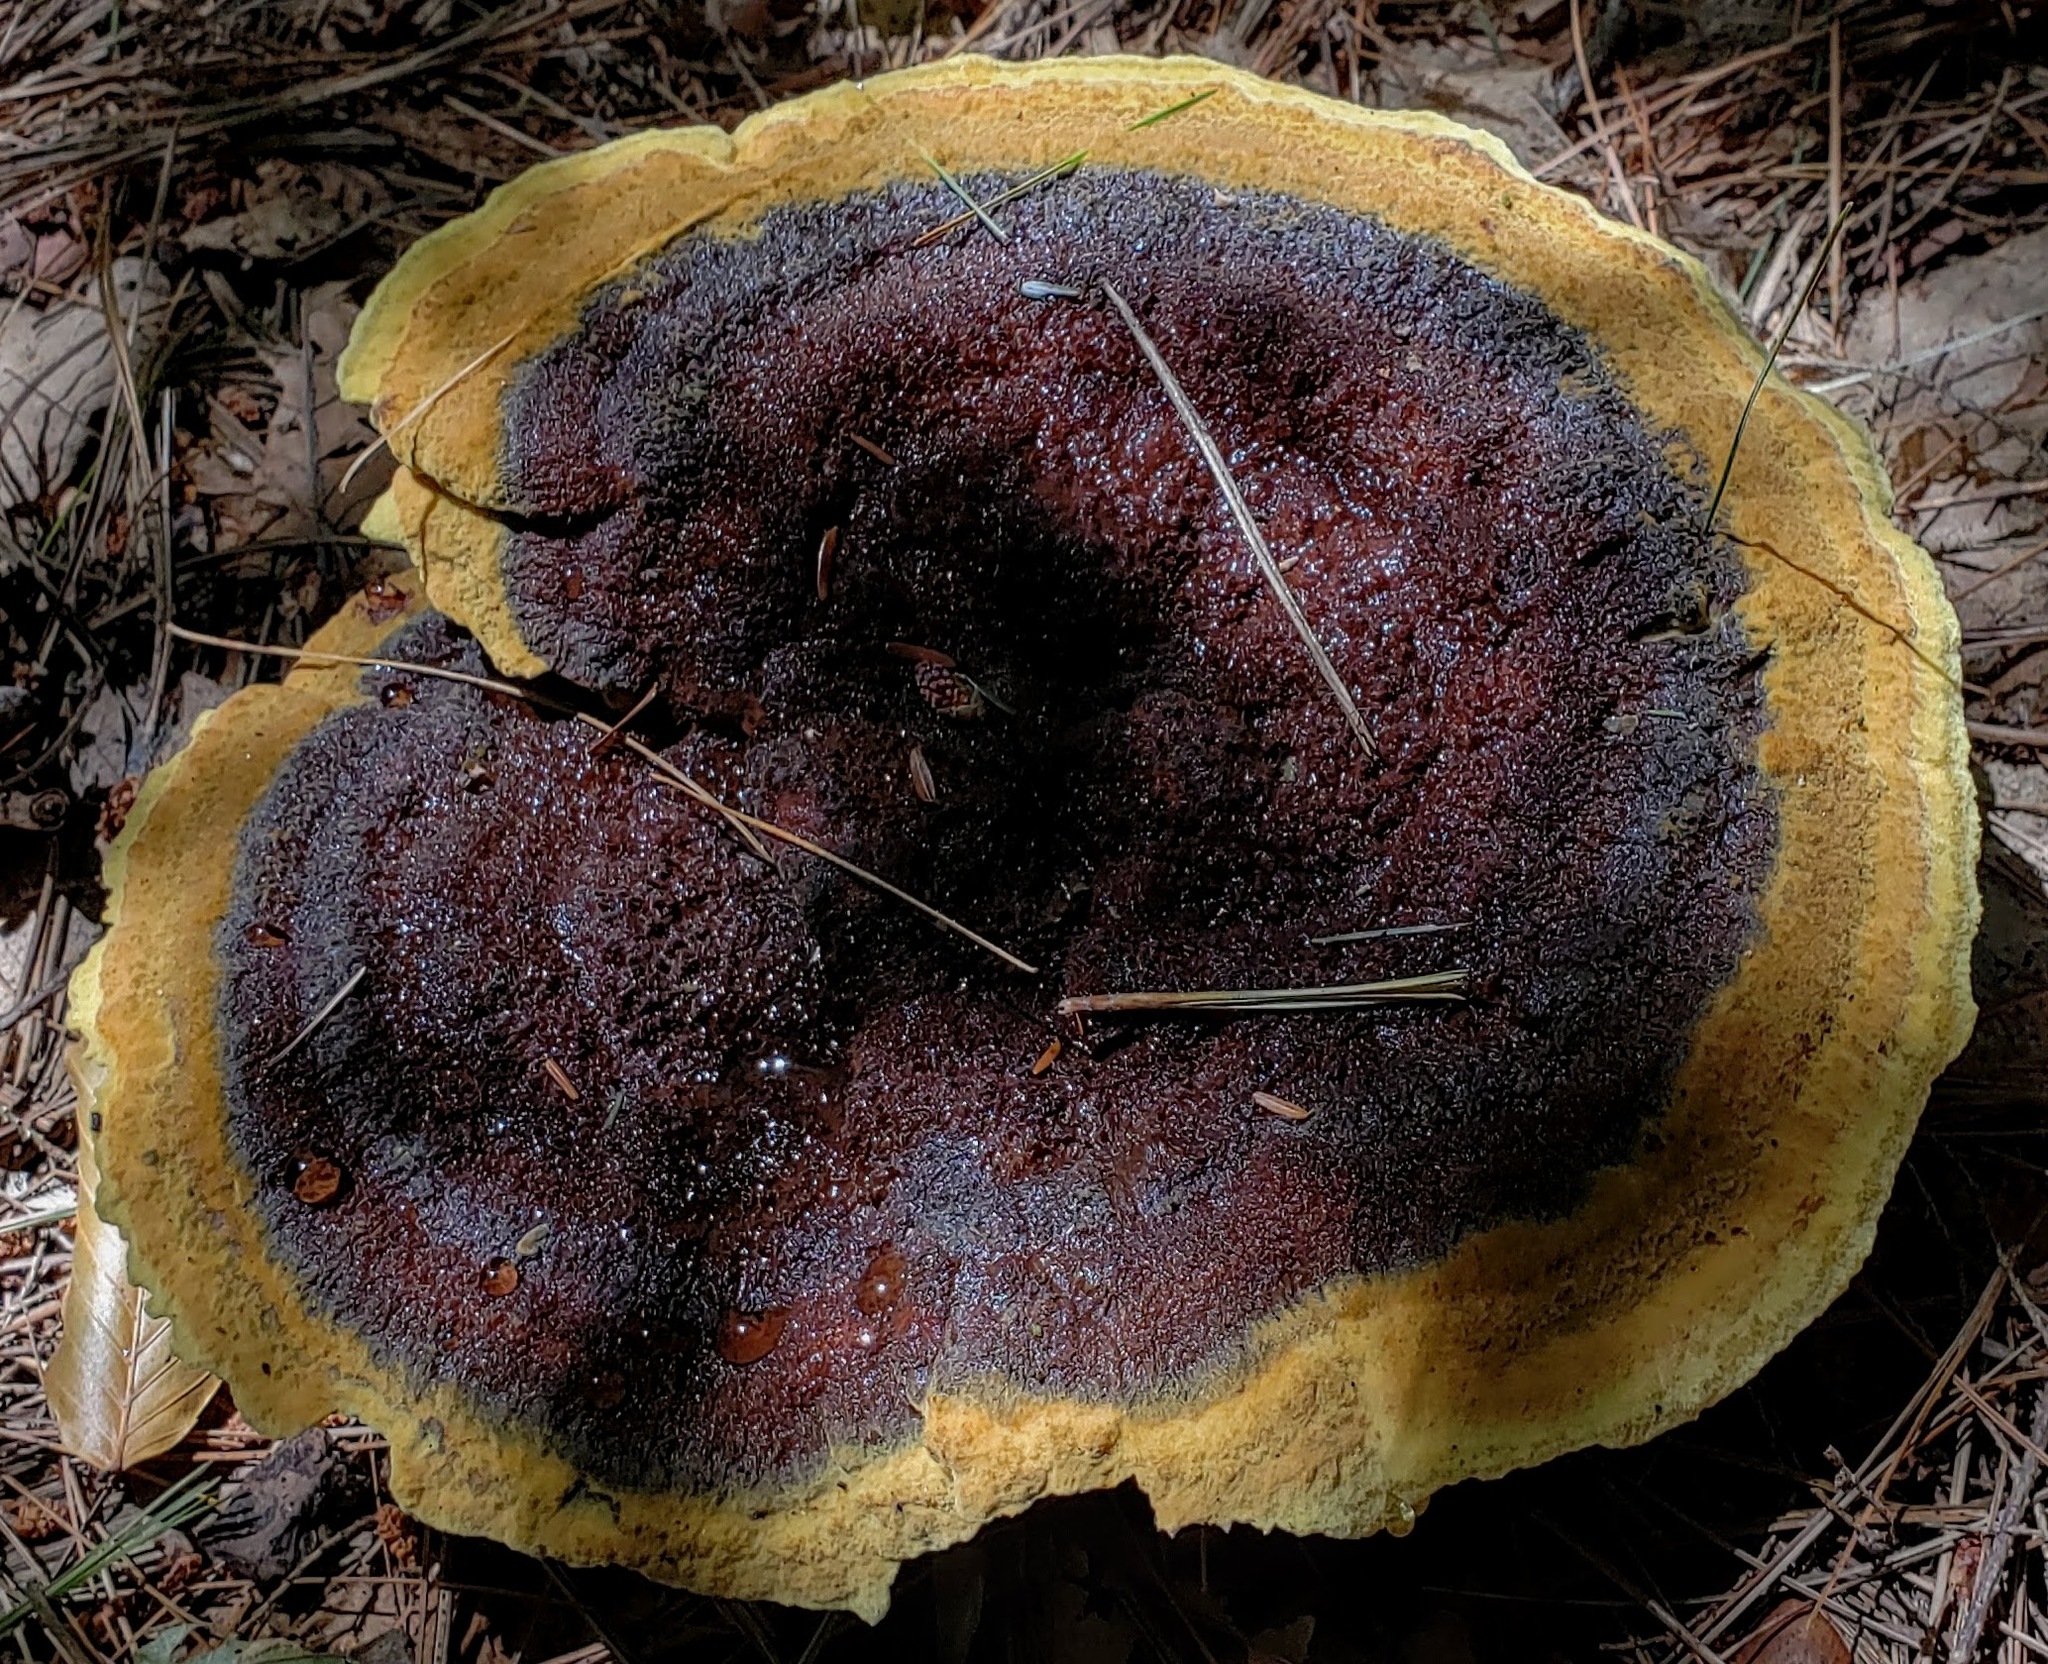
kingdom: Fungi
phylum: Basidiomycota
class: Agaricomycetes
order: Polyporales
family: Laetiporaceae
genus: Phaeolus
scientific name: Phaeolus schweinitzii
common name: Dyer's mazegill
